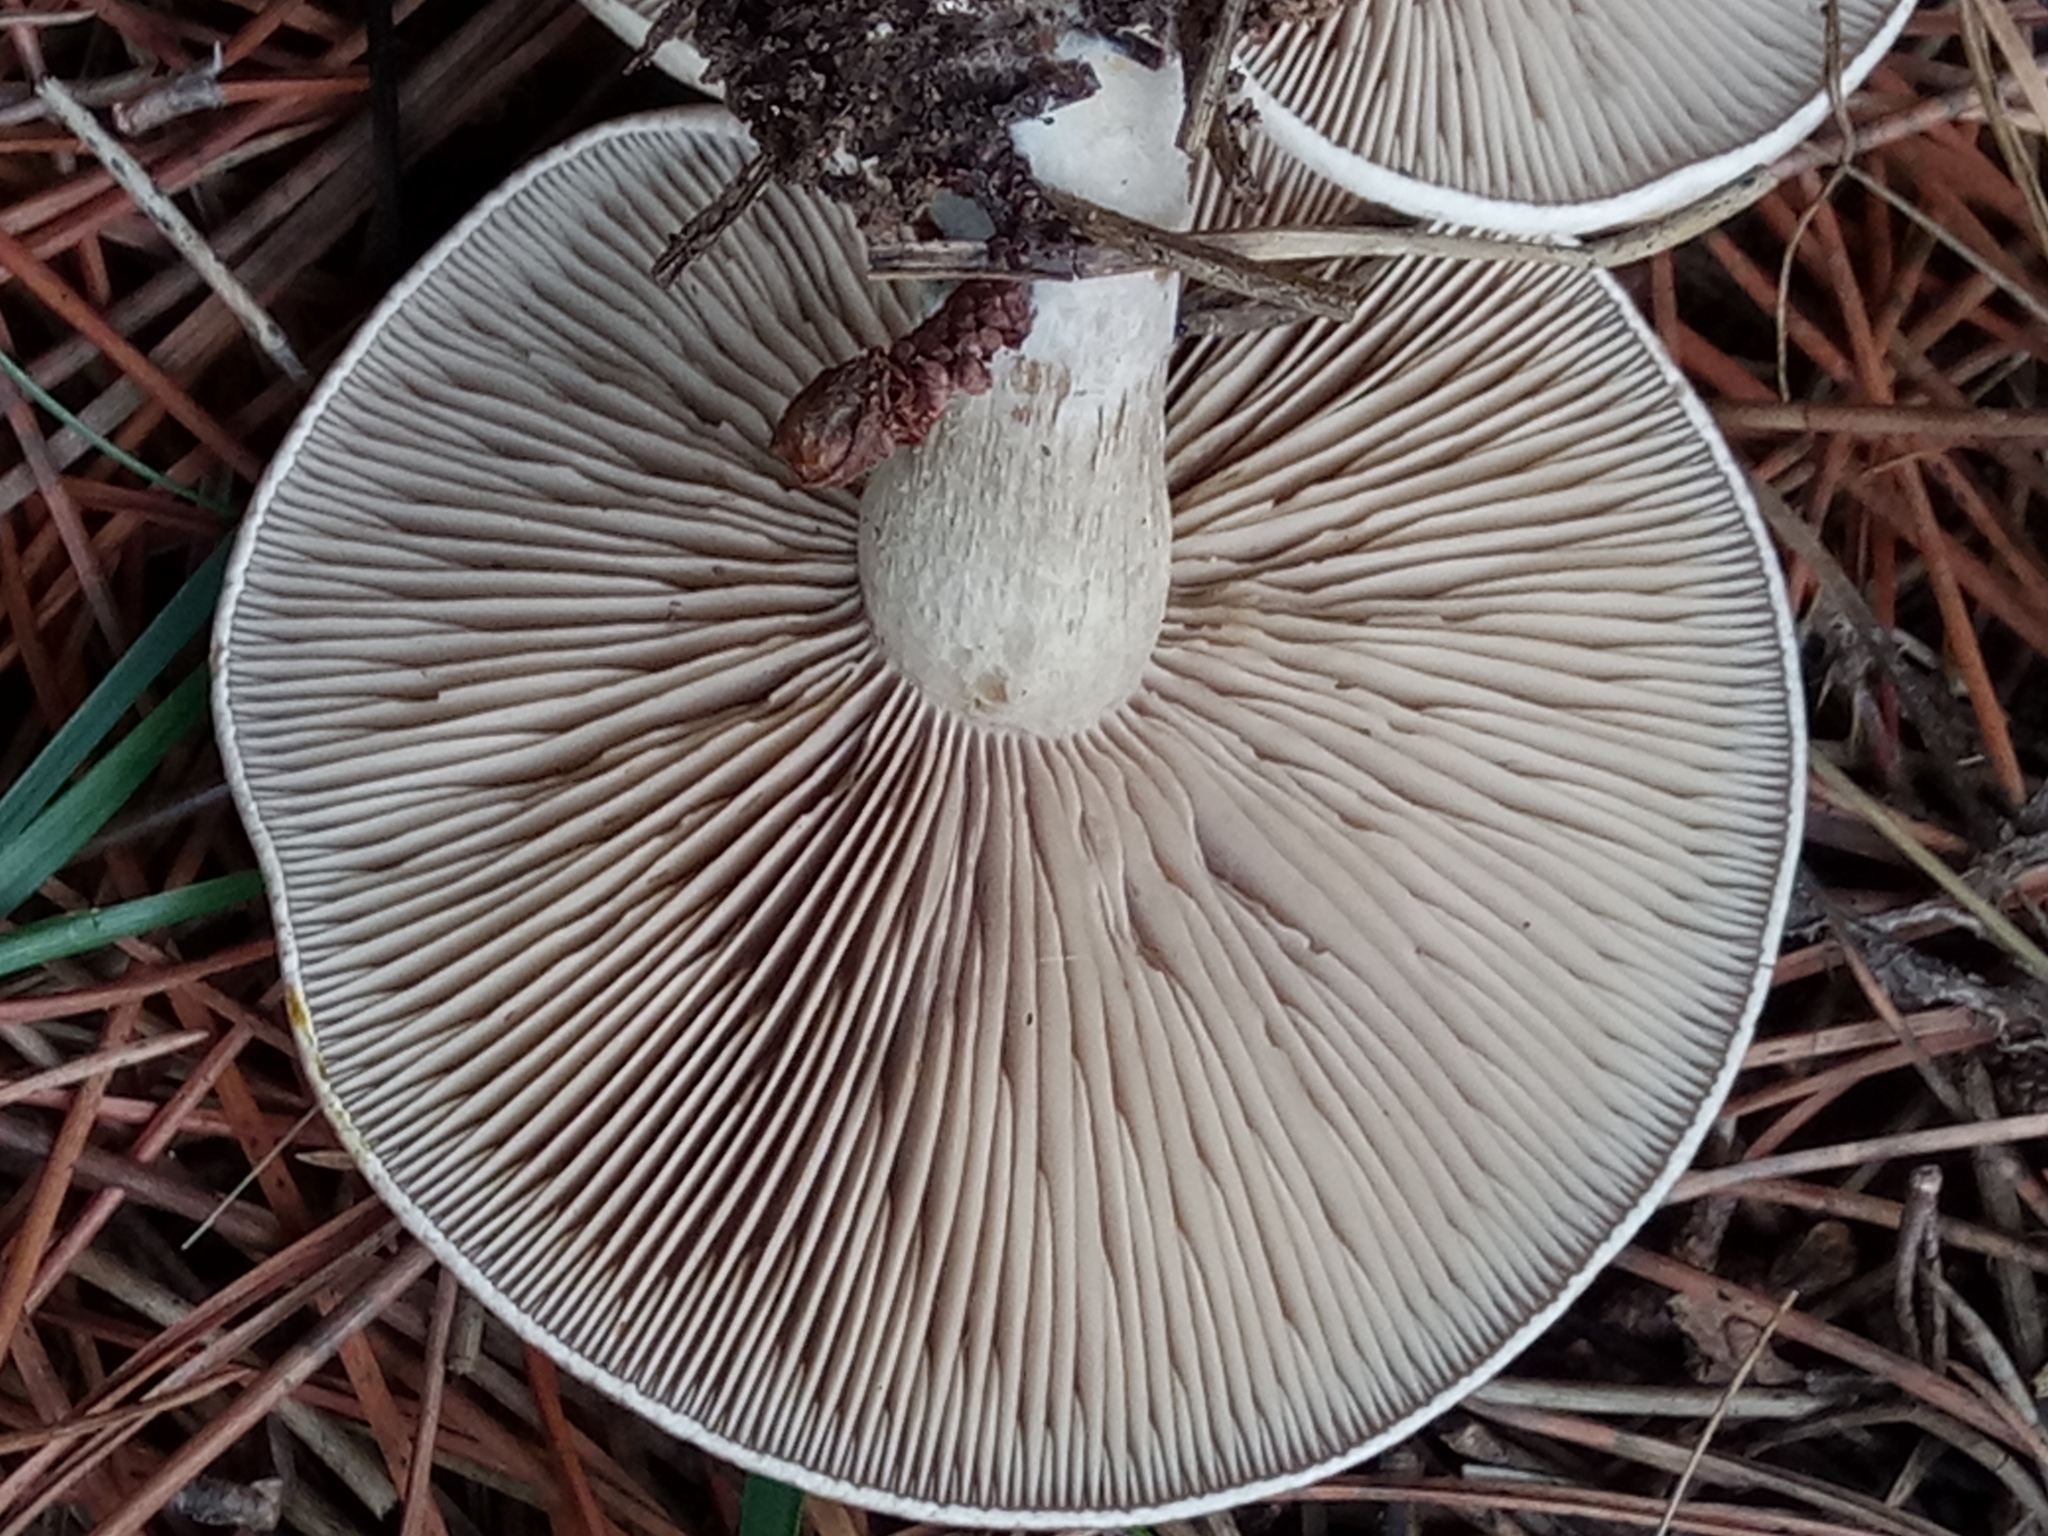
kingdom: Fungi
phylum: Basidiomycota
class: Agaricomycetes
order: Russulales
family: Russulaceae
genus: Lactarius
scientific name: Lactarius flexuosus
